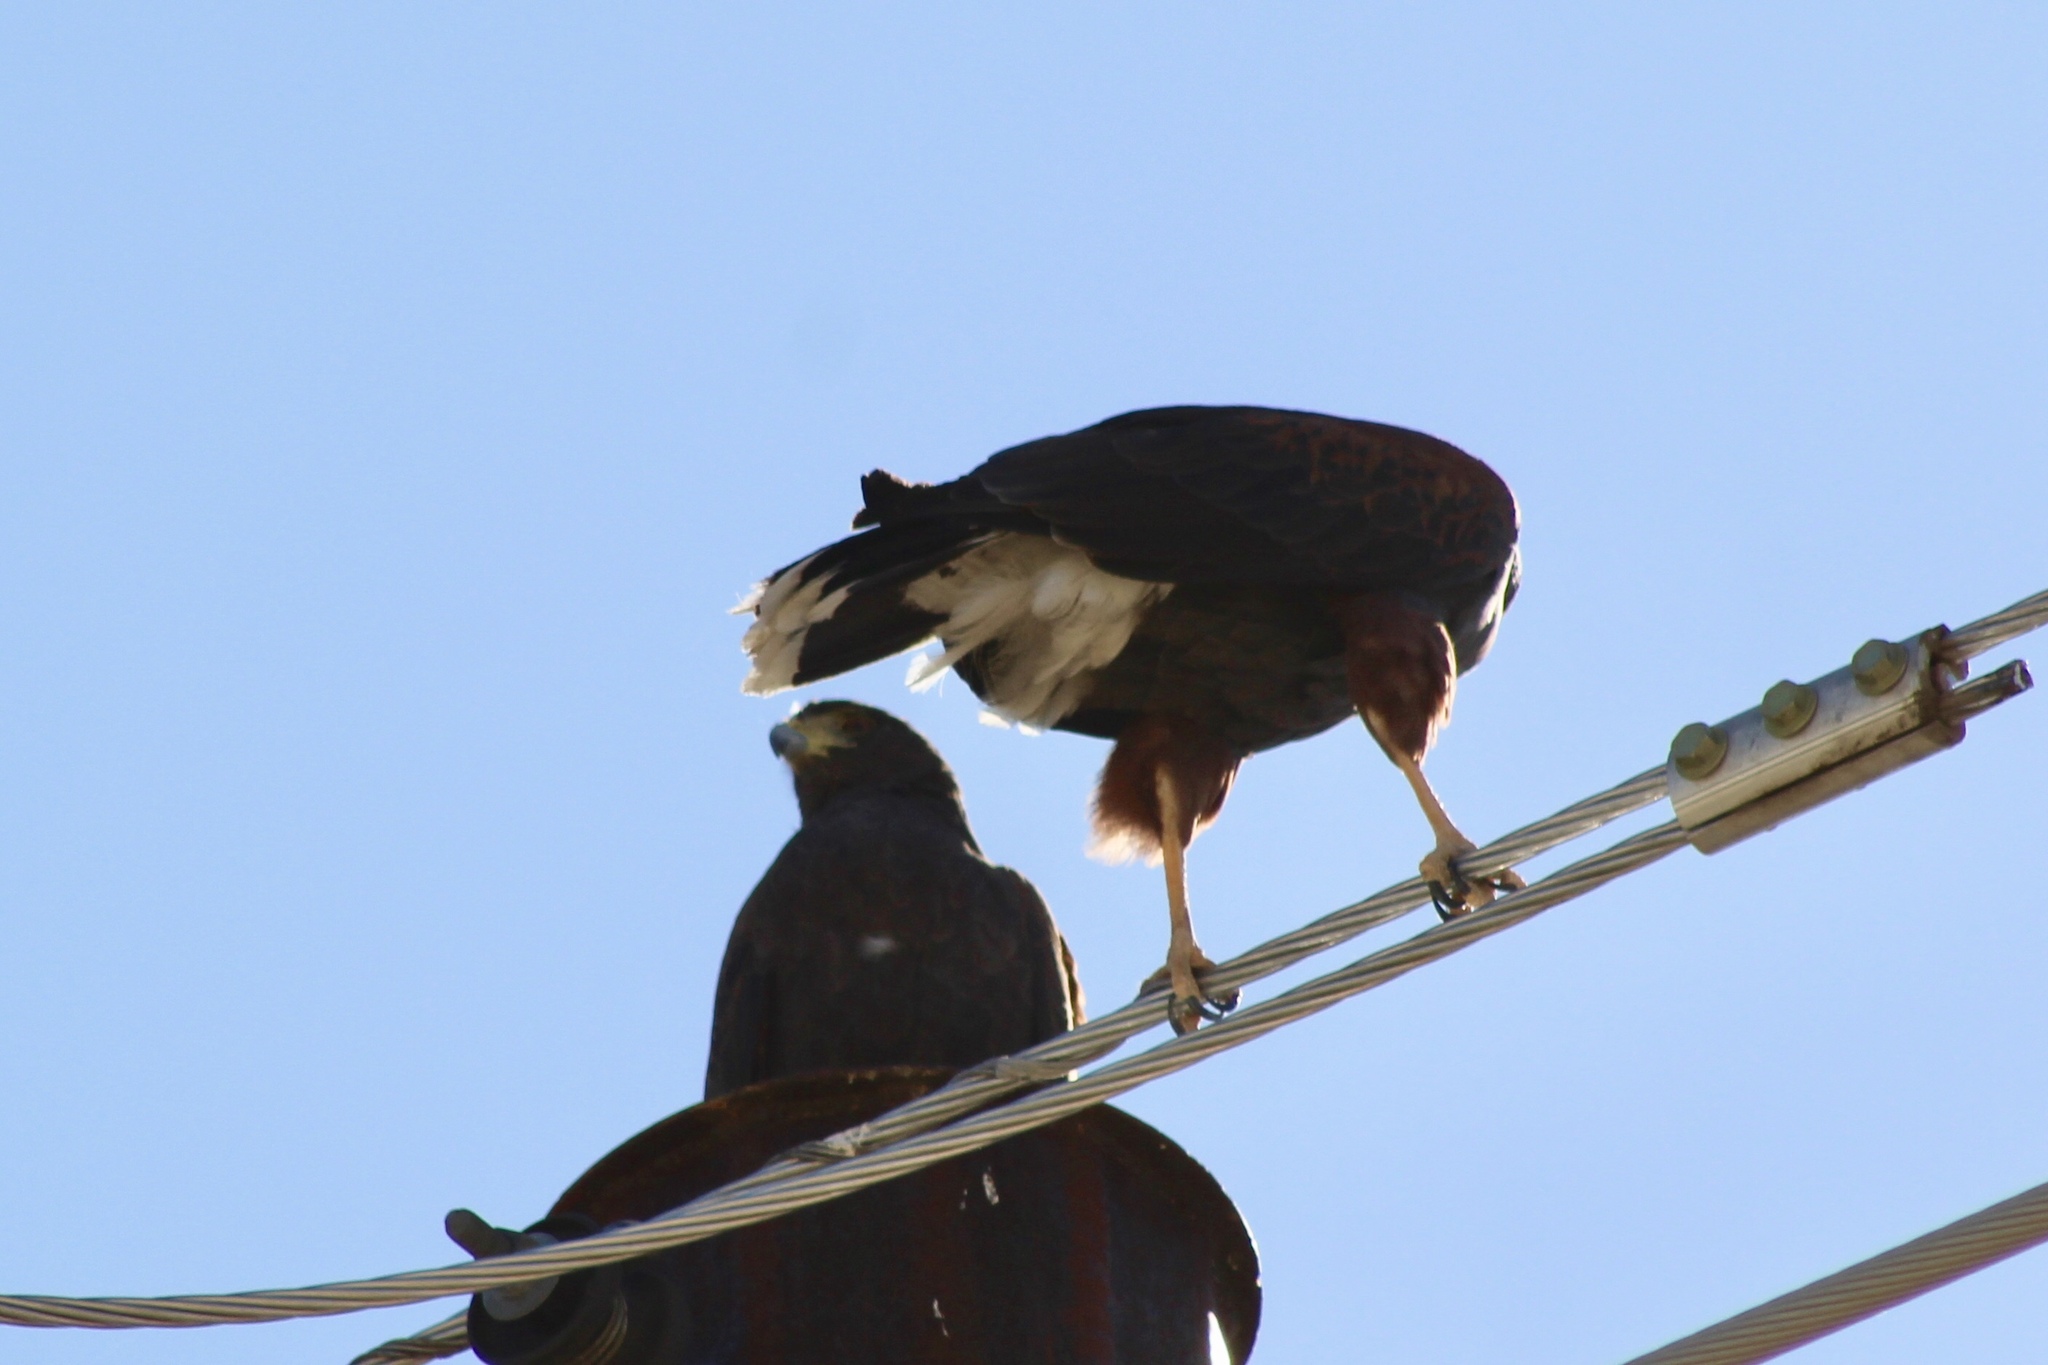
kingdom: Animalia
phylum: Chordata
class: Aves
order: Accipitriformes
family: Accipitridae
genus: Parabuteo
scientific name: Parabuteo unicinctus
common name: Harris's hawk
